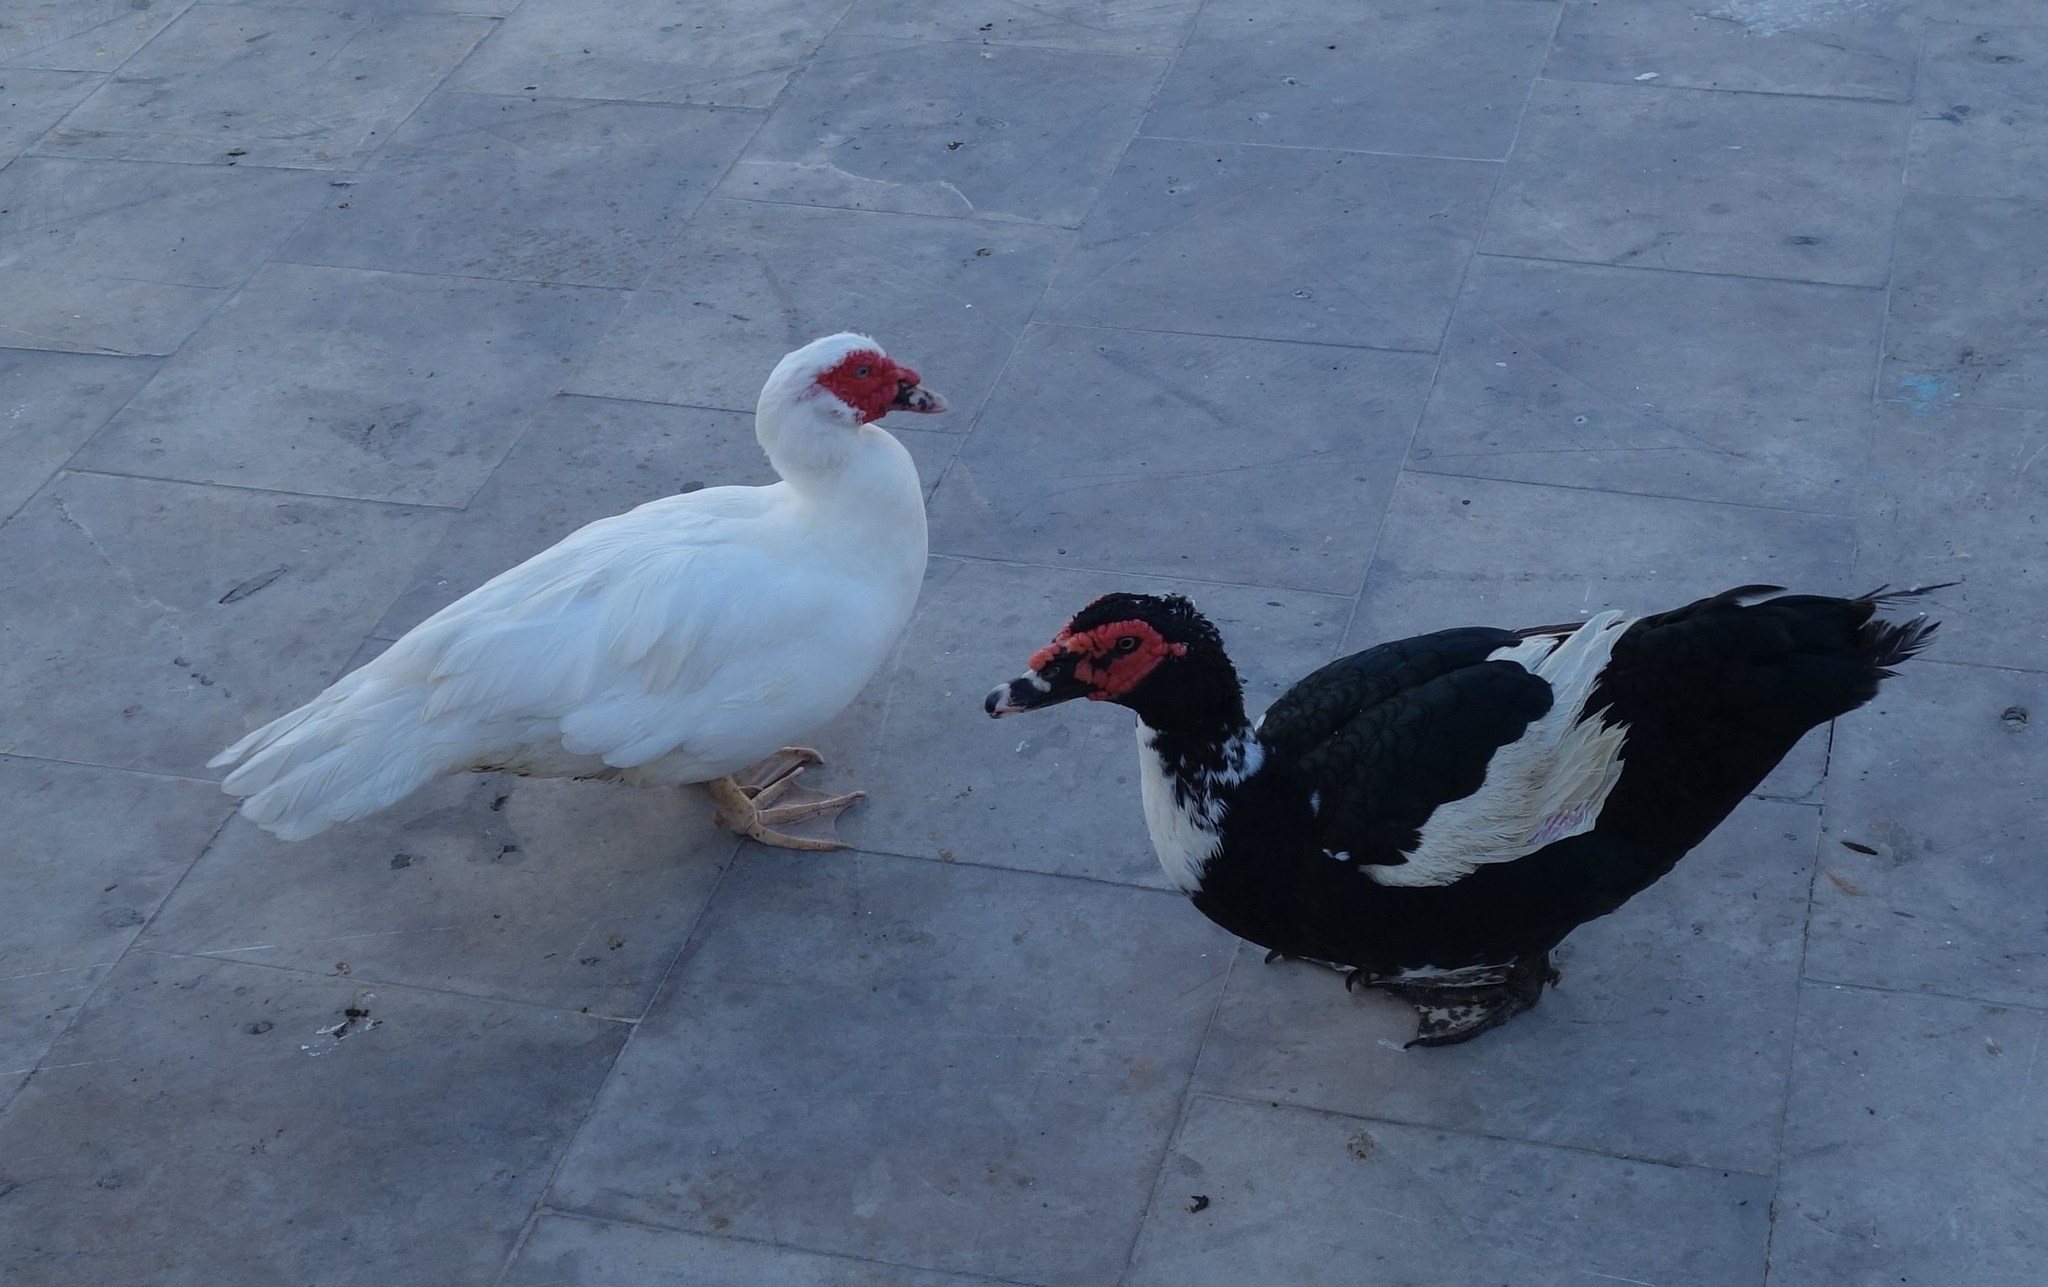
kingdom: Animalia
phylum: Chordata
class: Aves
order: Anseriformes
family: Anatidae
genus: Cairina
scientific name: Cairina moschata
